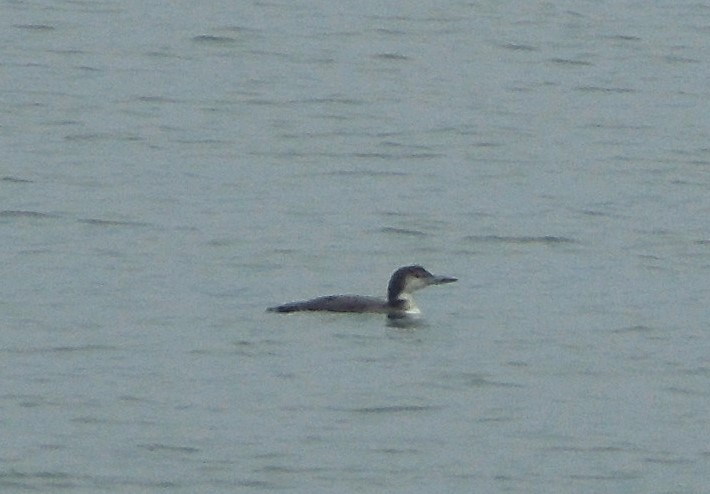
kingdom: Animalia
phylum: Chordata
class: Aves
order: Gaviiformes
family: Gaviidae
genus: Gavia
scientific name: Gavia immer
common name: Common loon
